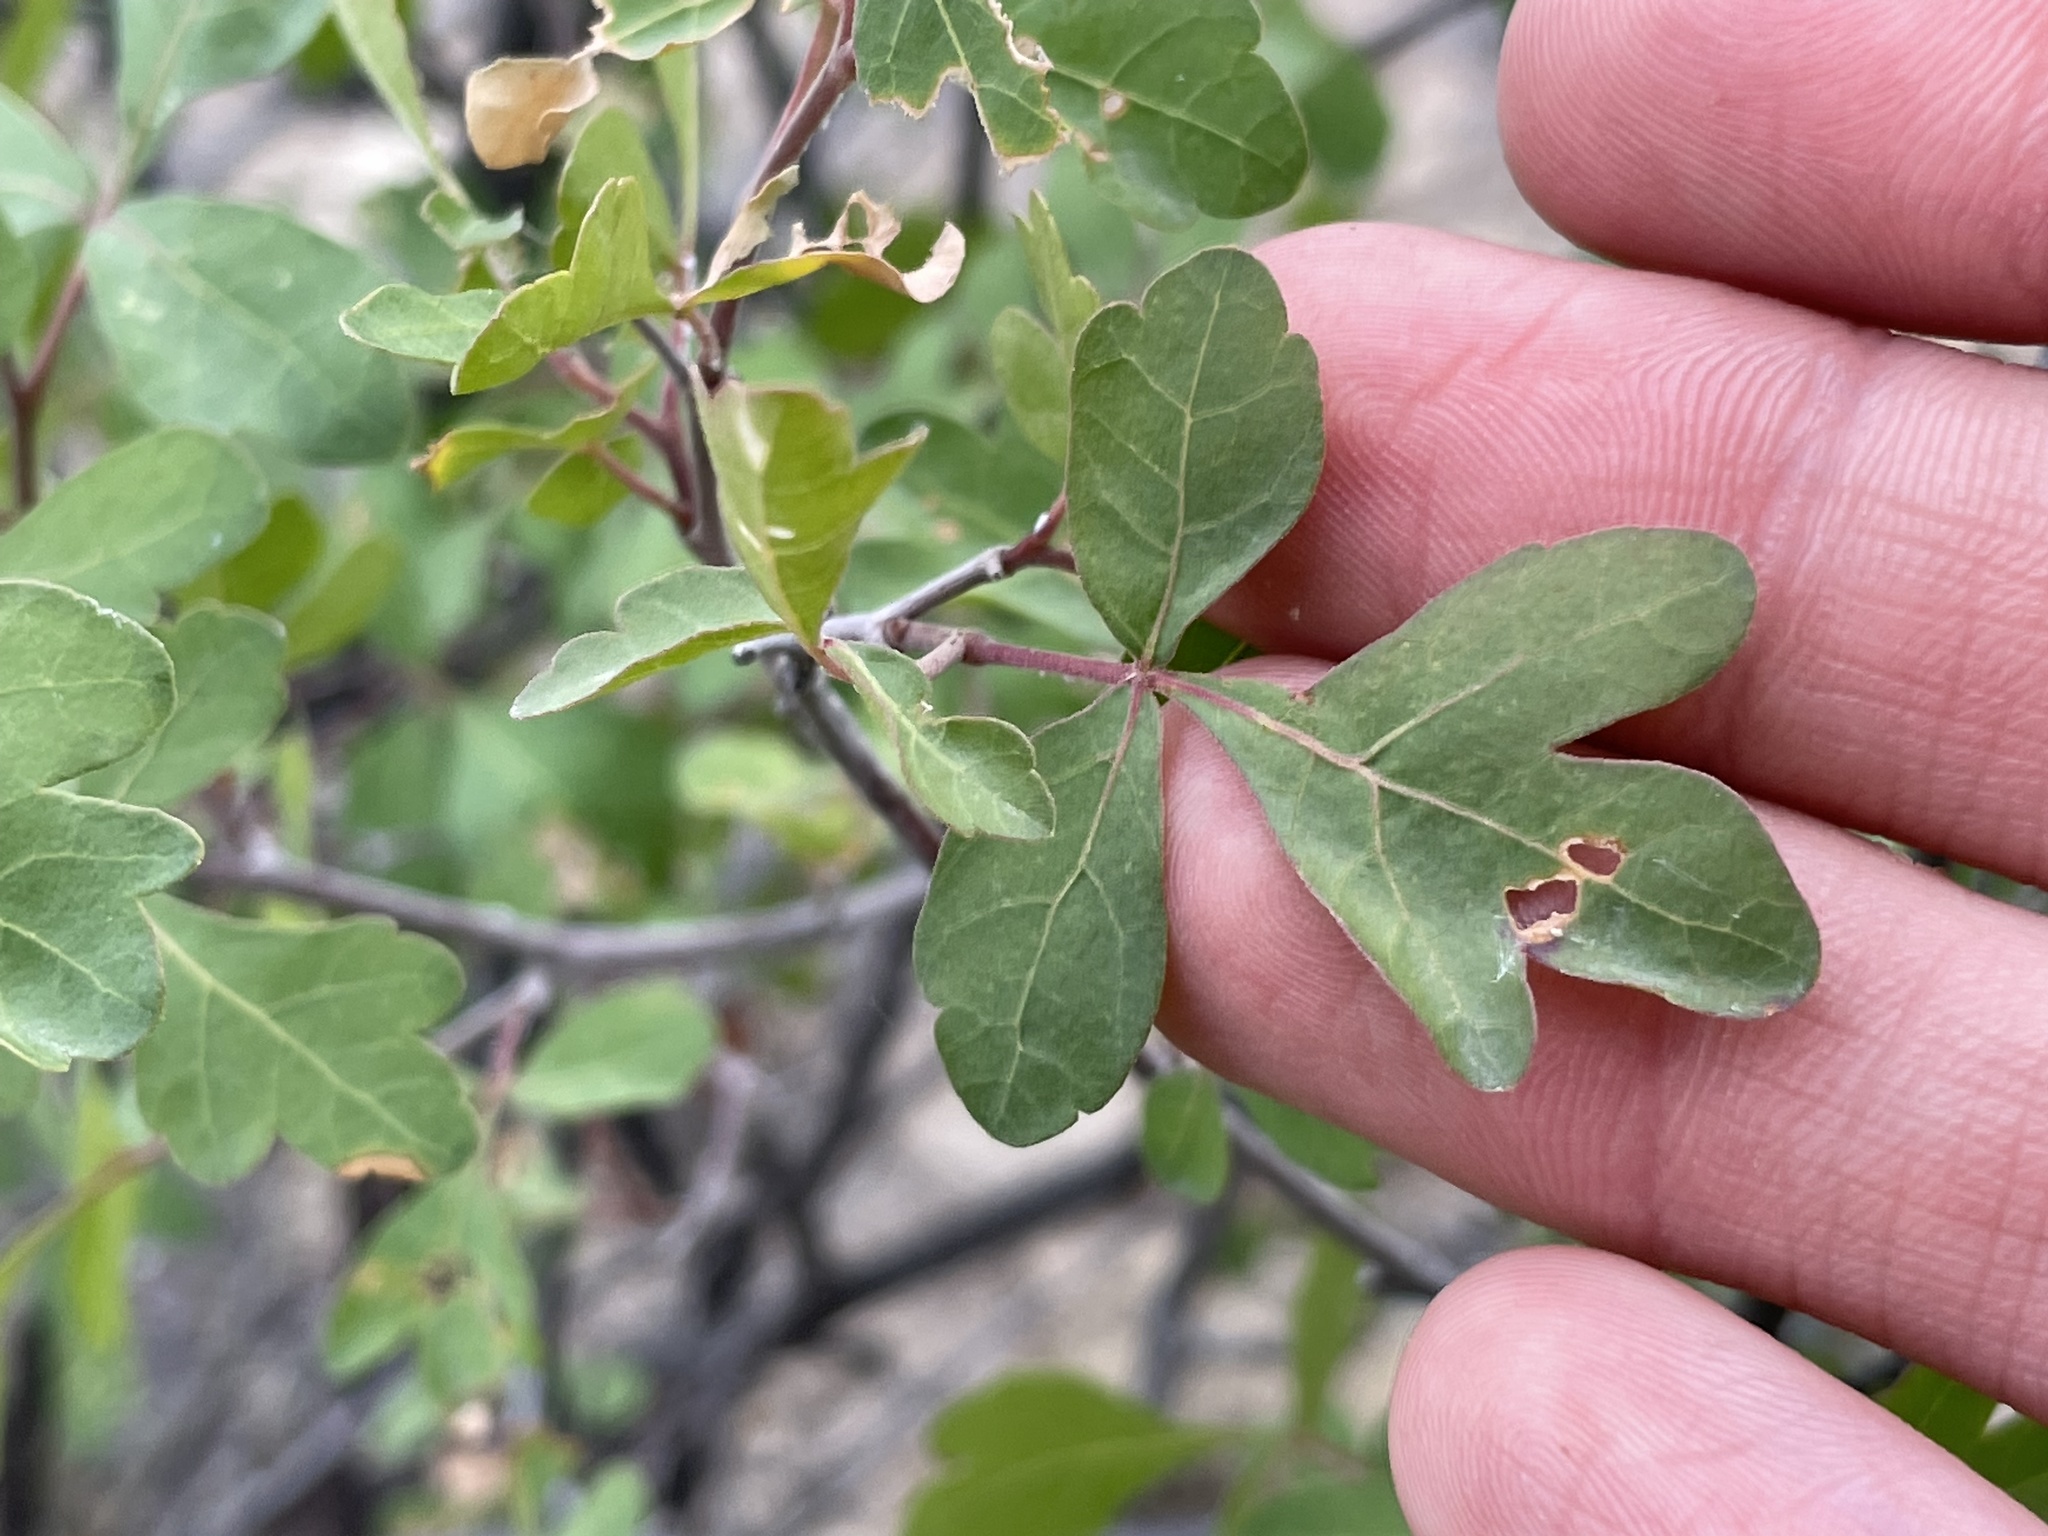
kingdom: Plantae
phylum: Tracheophyta
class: Magnoliopsida
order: Sapindales
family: Anacardiaceae
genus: Rhus
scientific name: Rhus trilobata
